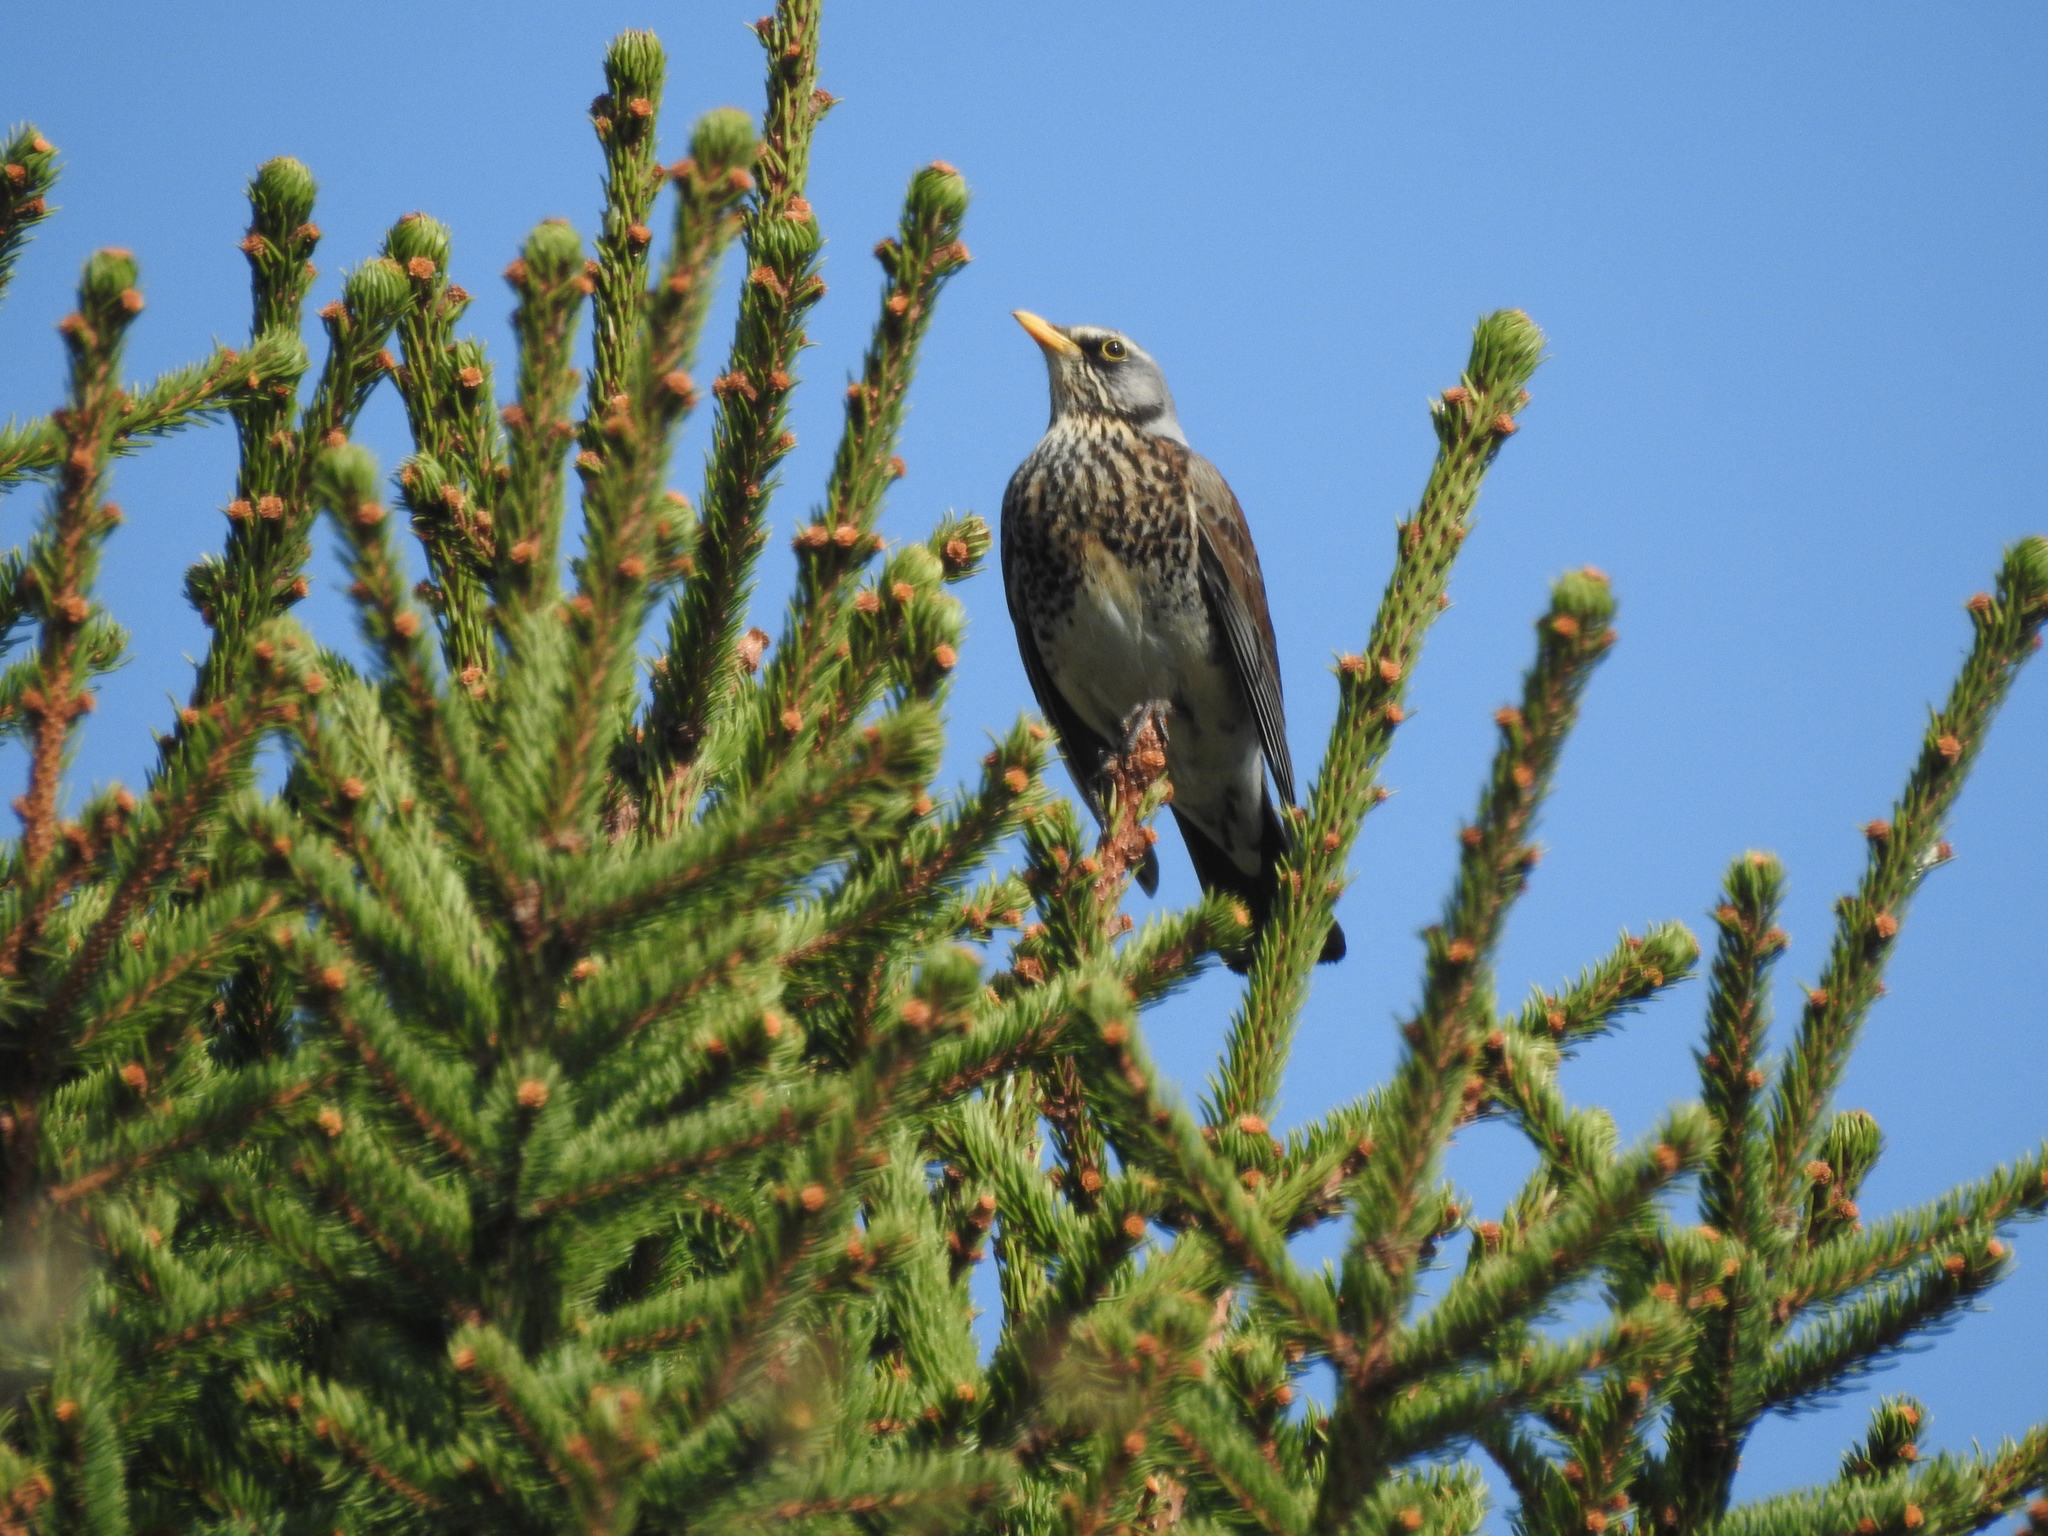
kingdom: Animalia
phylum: Chordata
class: Aves
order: Passeriformes
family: Turdidae
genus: Turdus
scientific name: Turdus pilaris
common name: Fieldfare
